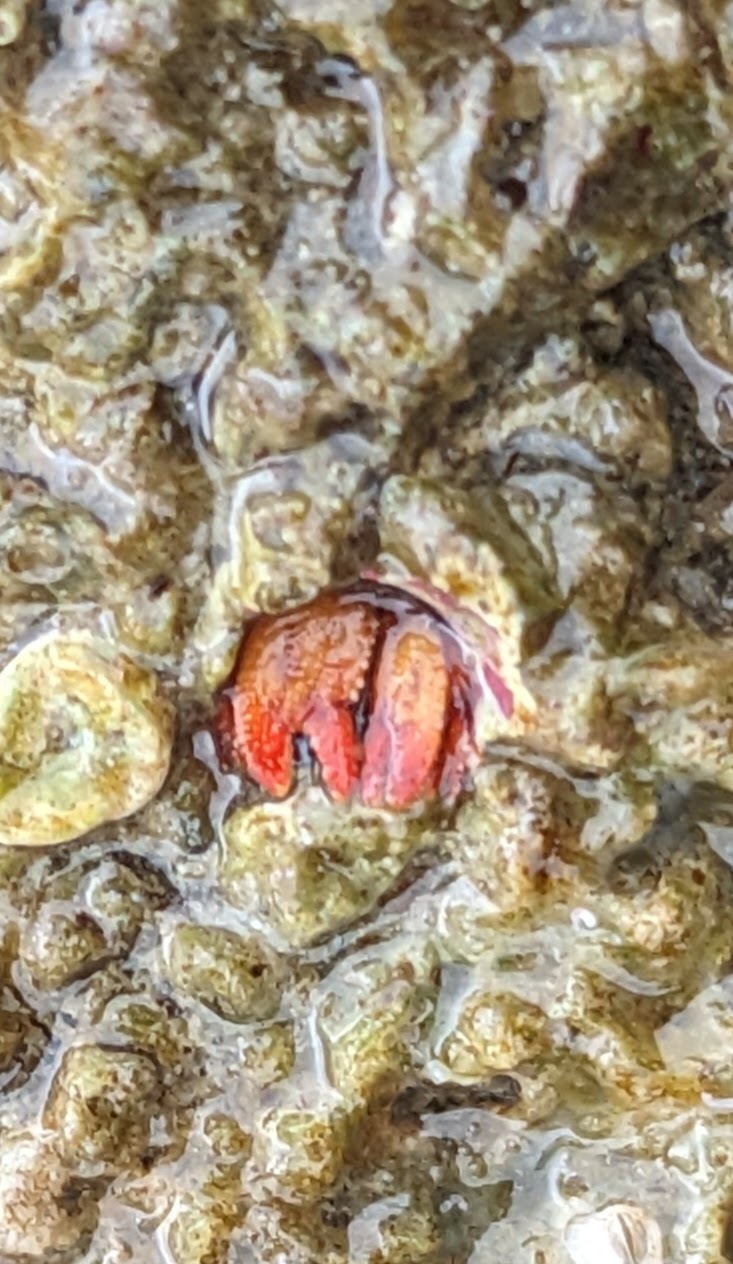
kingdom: Animalia
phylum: Arthropoda
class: Malacostraca
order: Decapoda
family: Paguridae
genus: Discorsopagurus
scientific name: Discorsopagurus schmitti
